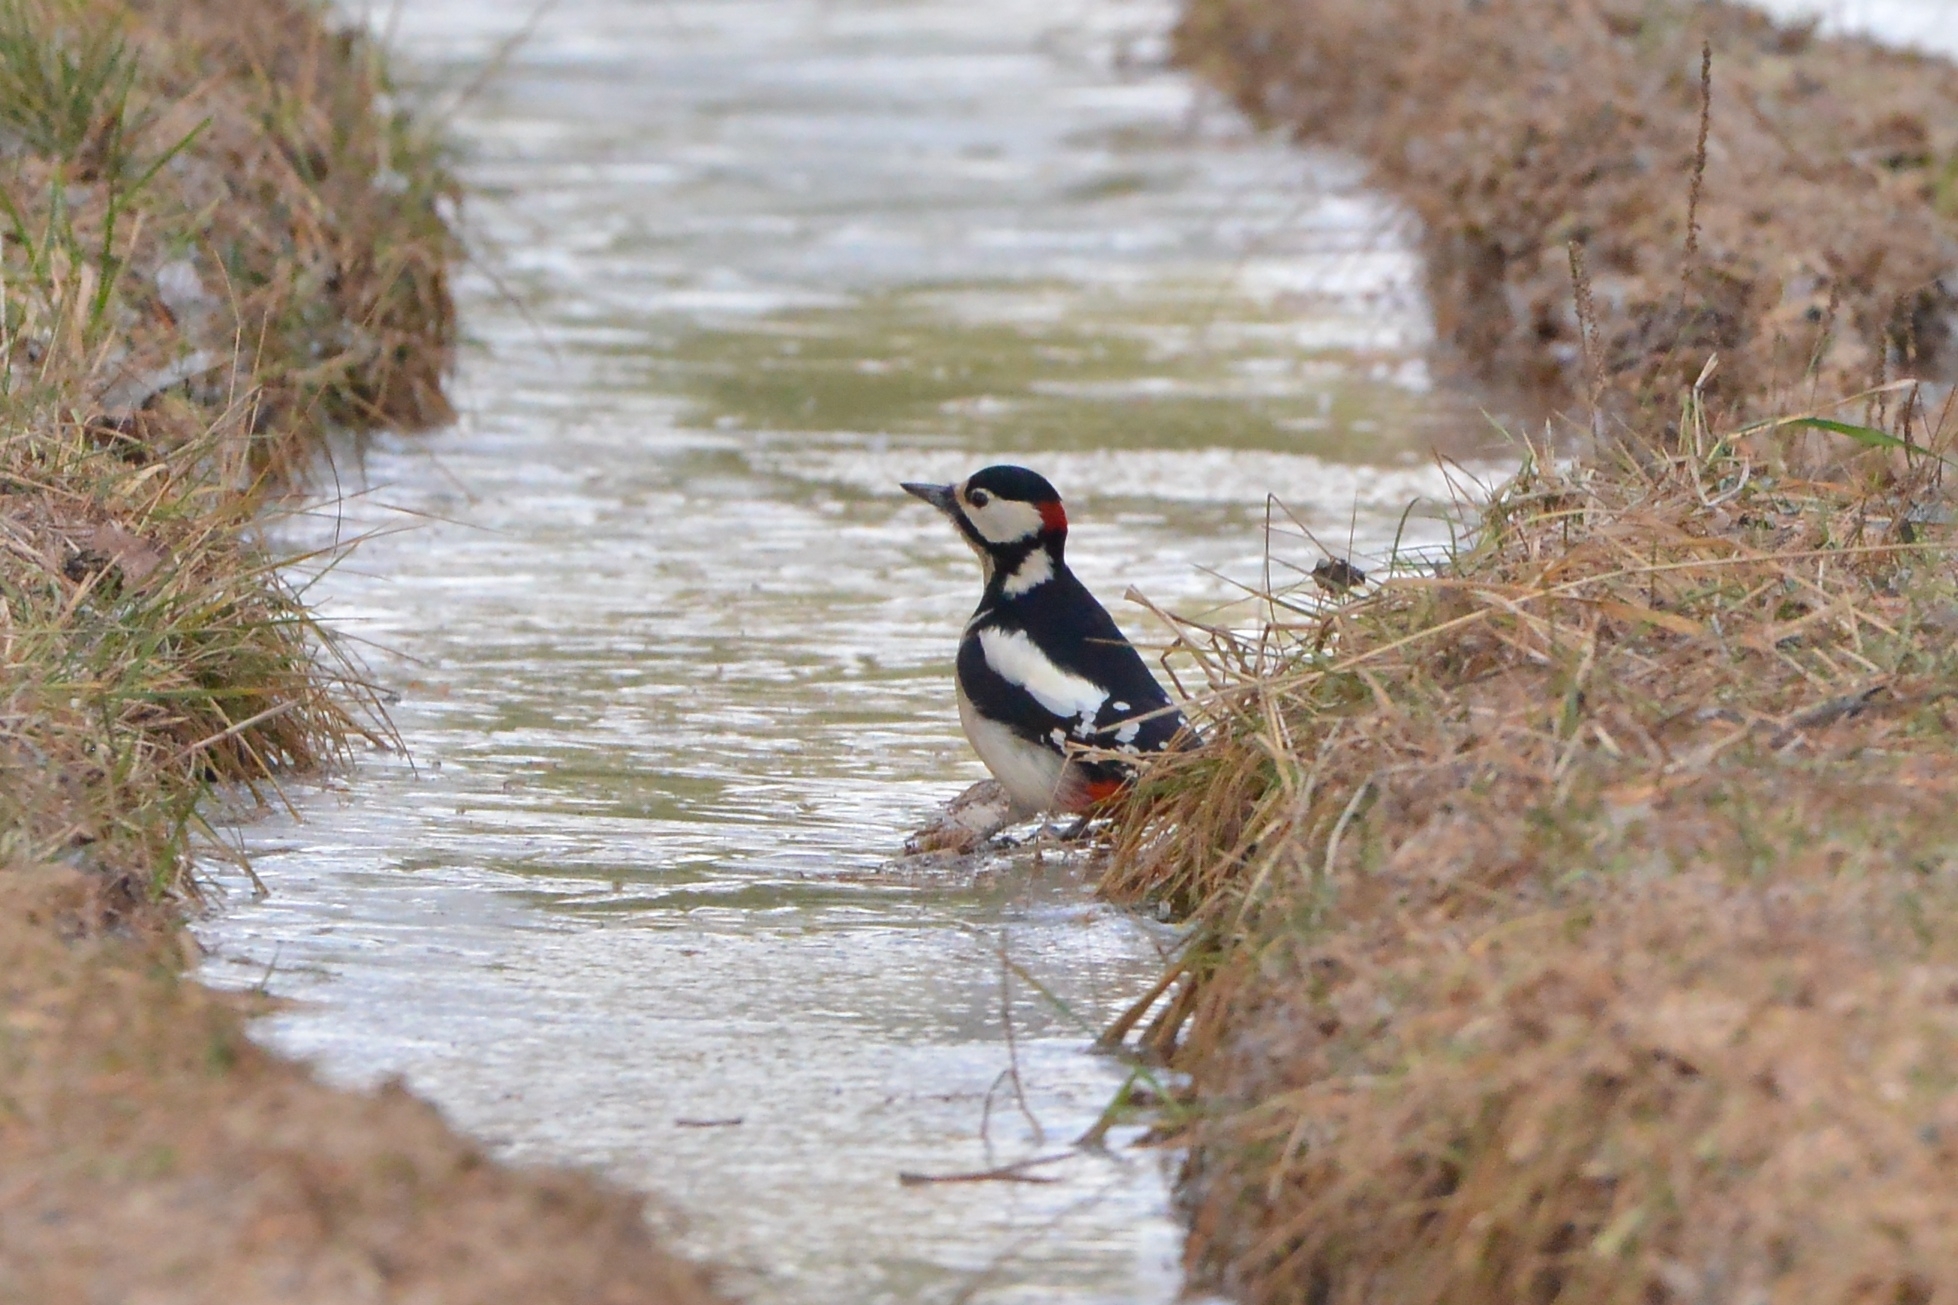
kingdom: Animalia
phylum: Chordata
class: Aves
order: Piciformes
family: Picidae
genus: Dendrocopos
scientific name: Dendrocopos major
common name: Great spotted woodpecker
